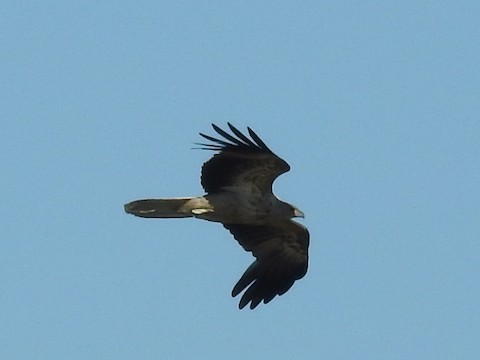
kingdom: Animalia
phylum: Chordata
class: Aves
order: Accipitriformes
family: Accipitridae
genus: Haliastur
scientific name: Haliastur sphenurus
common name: Whistling kite
